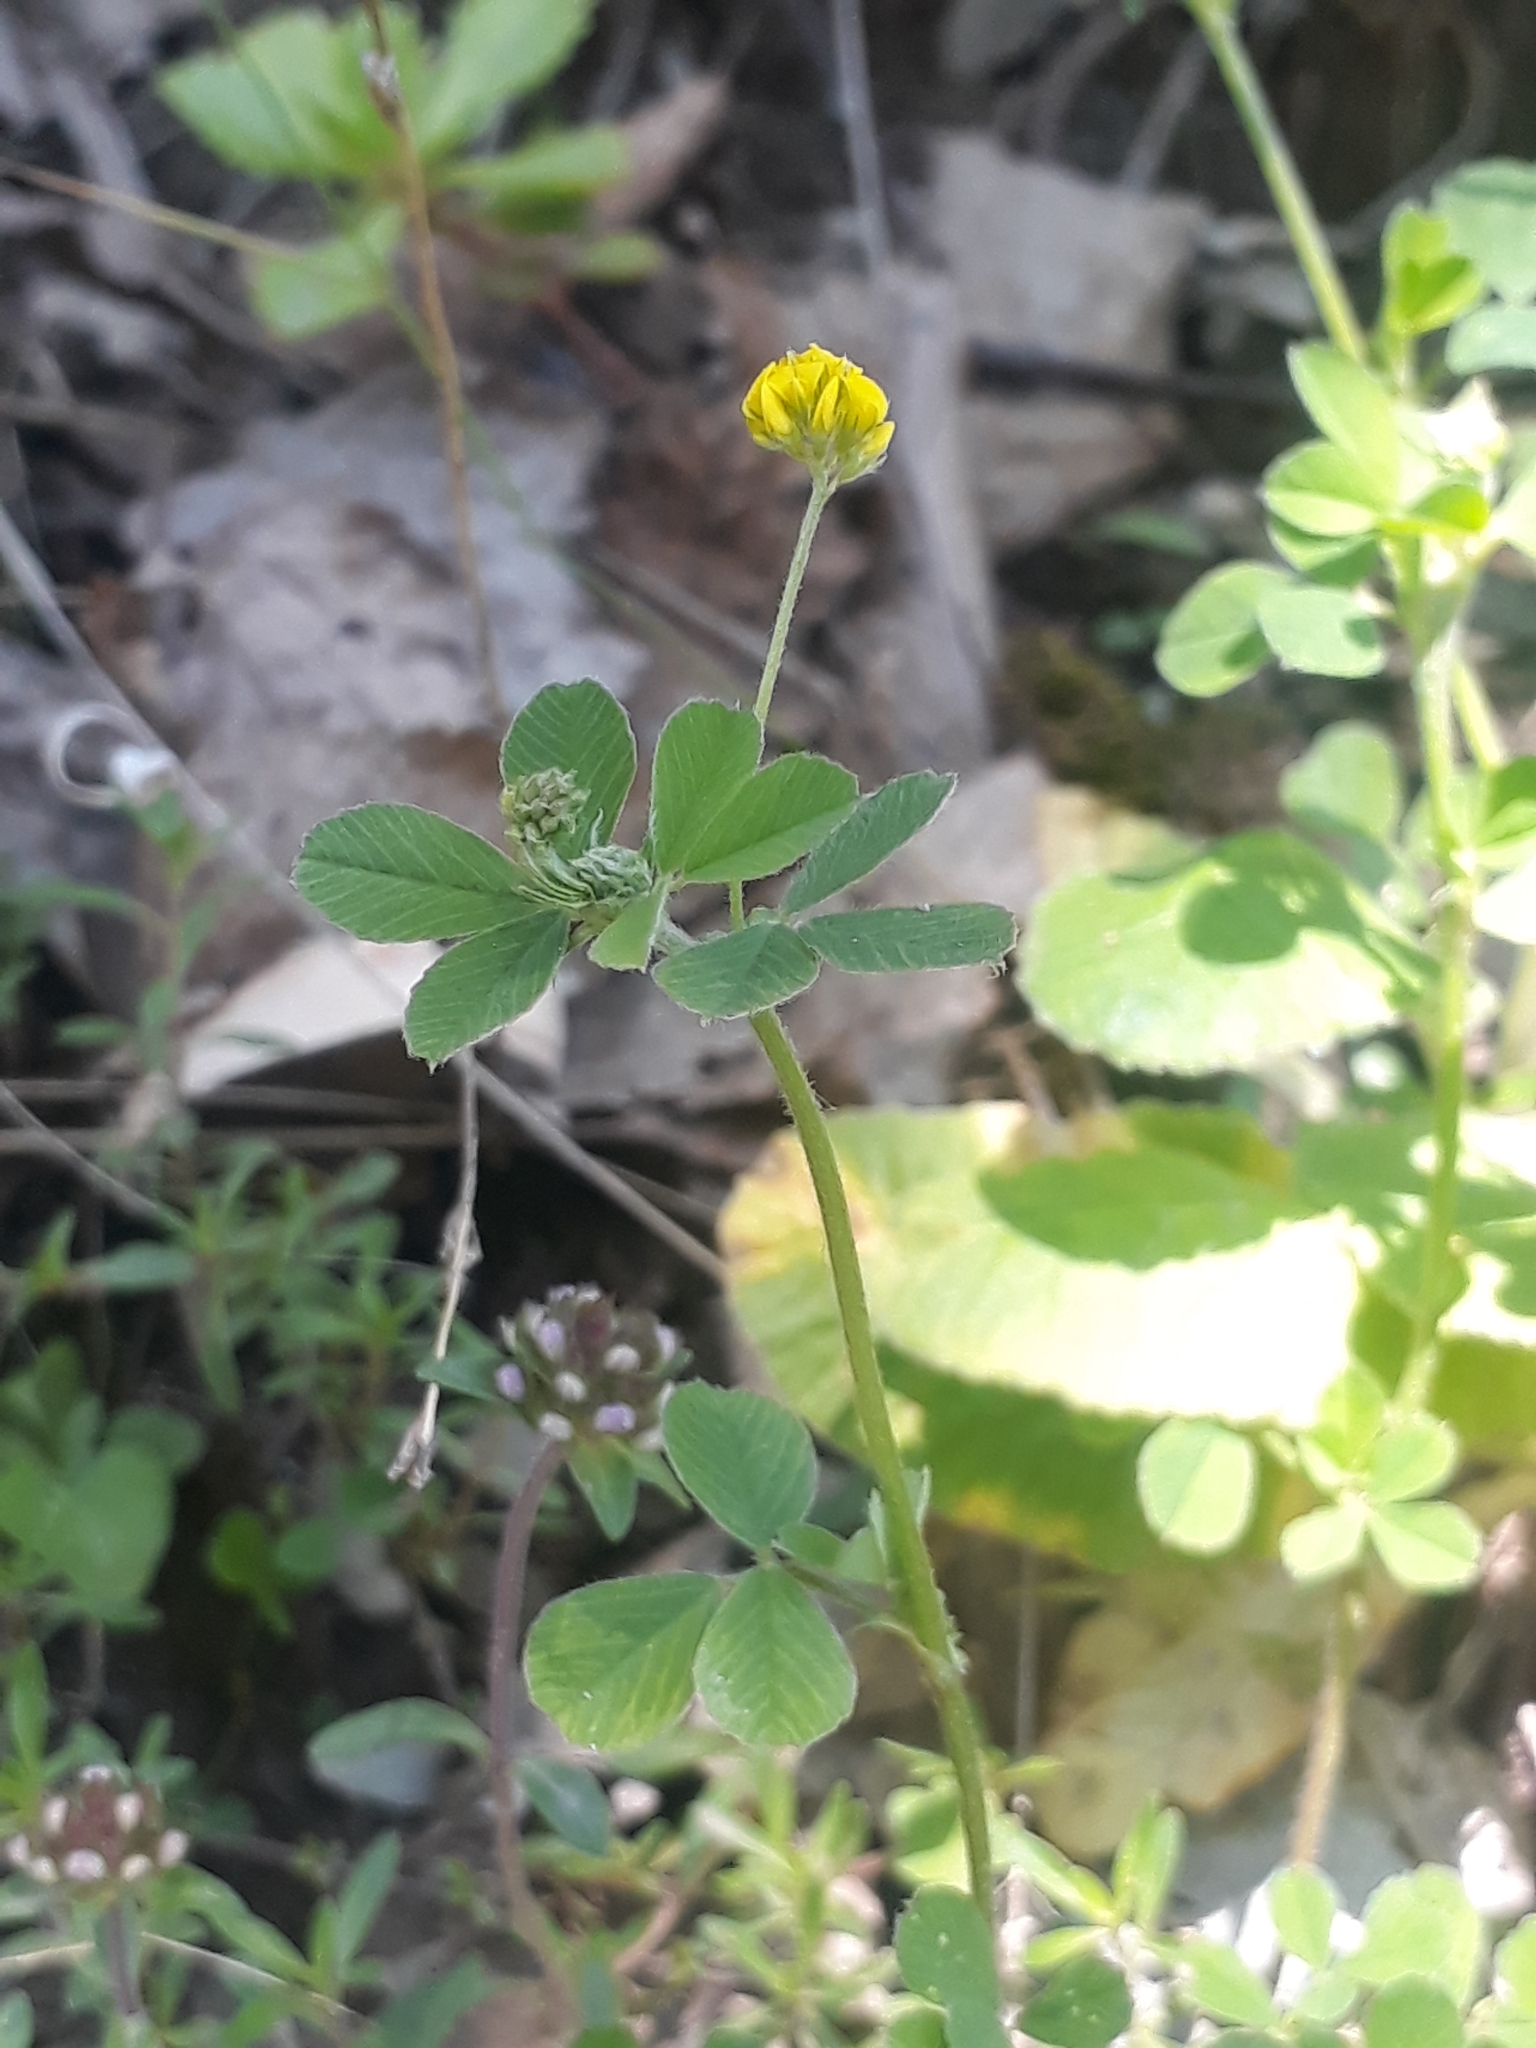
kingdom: Plantae
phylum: Tracheophyta
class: Magnoliopsida
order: Fabales
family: Fabaceae
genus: Medicago
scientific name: Medicago lupulina
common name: Black medick
